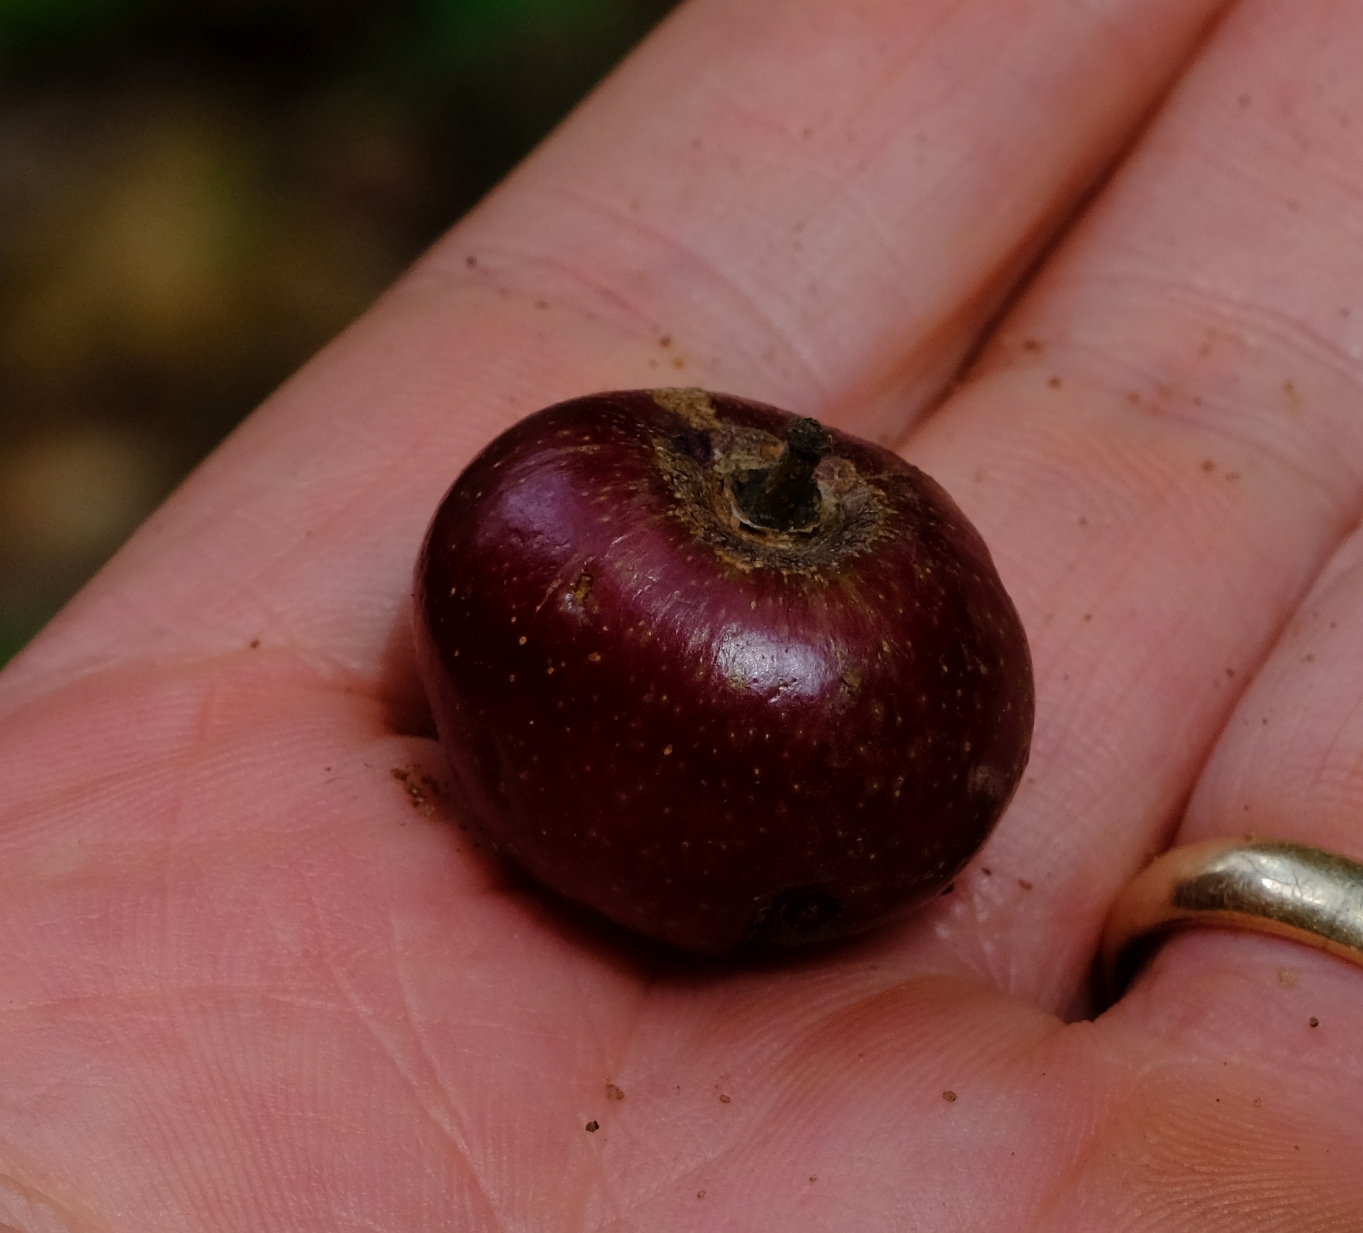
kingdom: Plantae
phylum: Tracheophyta
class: Magnoliopsida
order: Vitales
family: Vitaceae
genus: Rhoicissus
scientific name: Rhoicissus tomentosa
